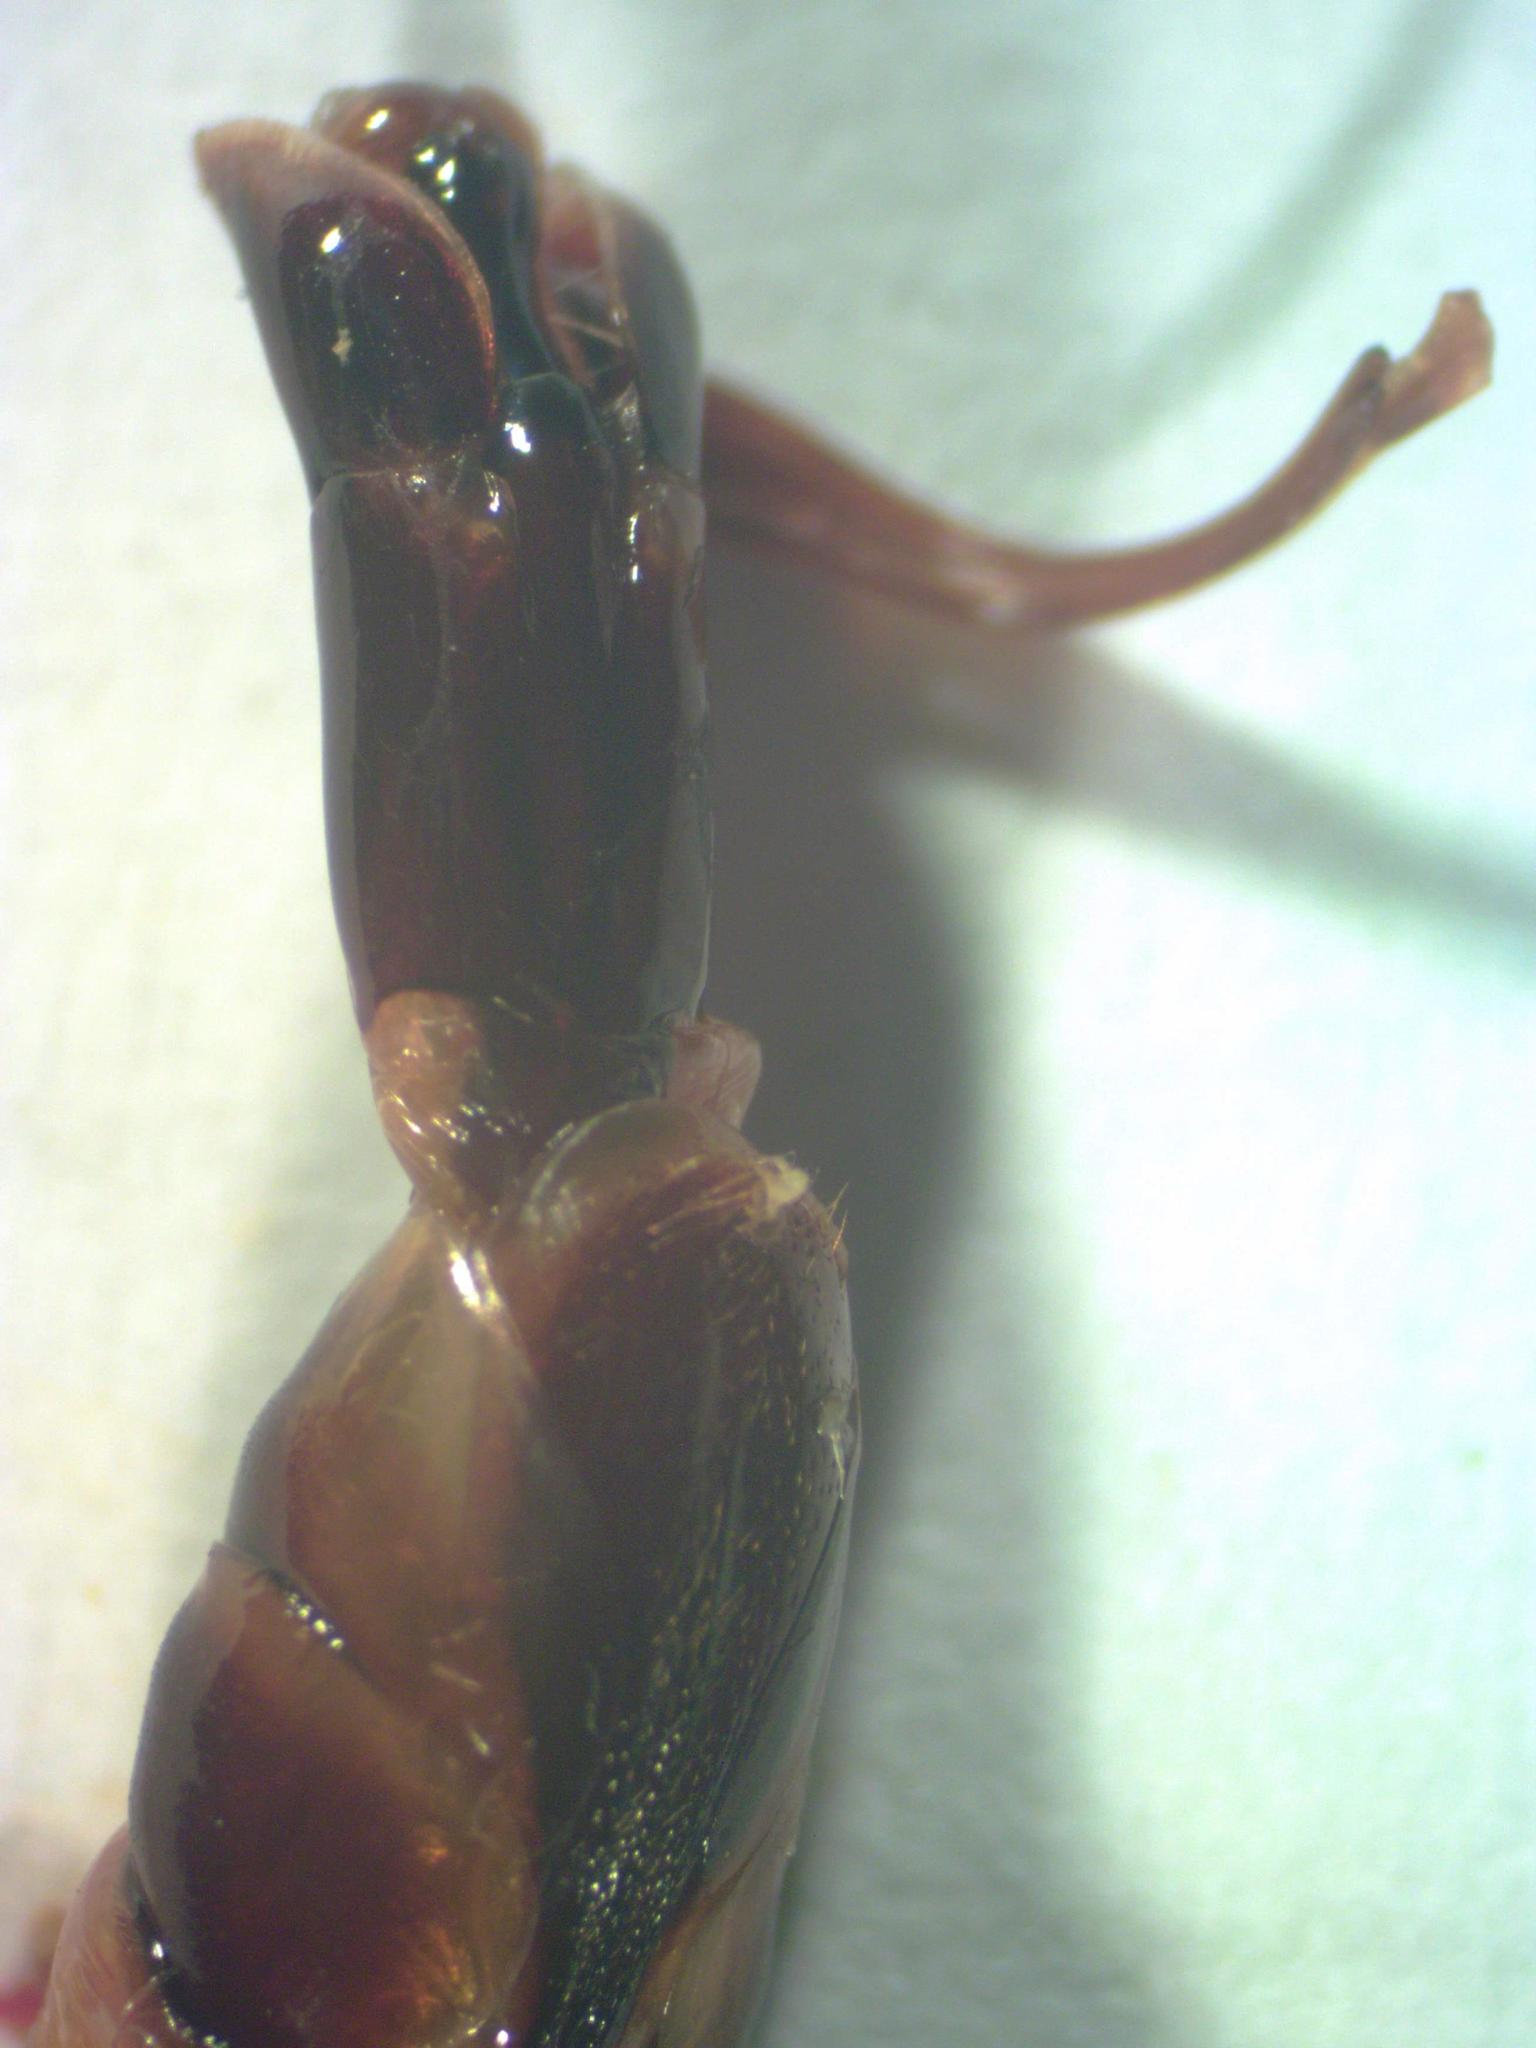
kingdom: Animalia
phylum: Arthropoda
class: Insecta
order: Coleoptera
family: Lucanidae
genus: Dorcus
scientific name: Dorcus antaeus
